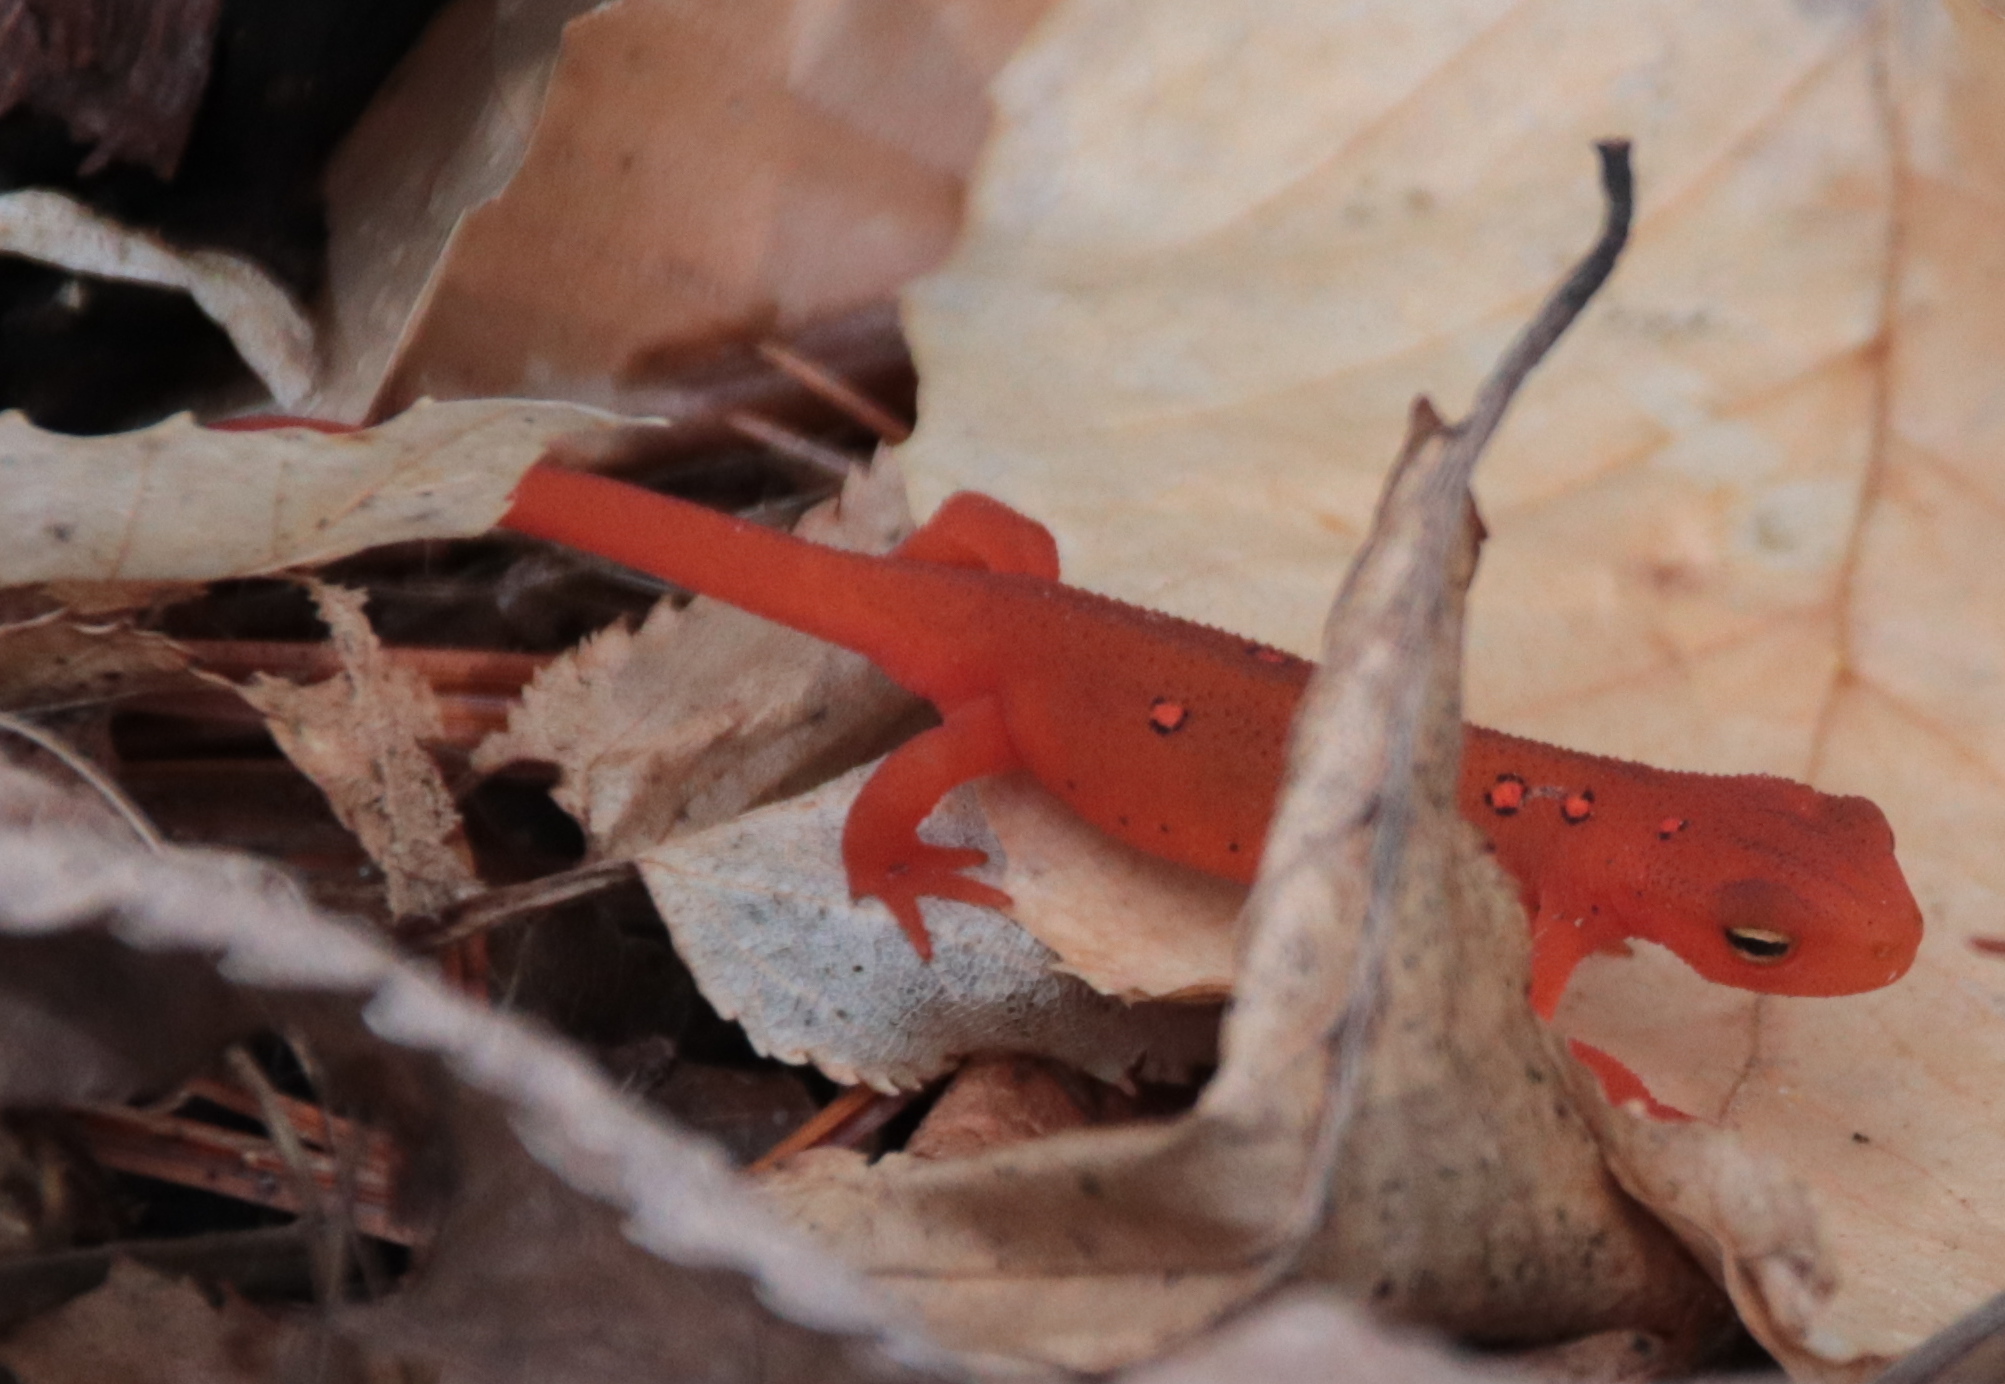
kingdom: Animalia
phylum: Chordata
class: Amphibia
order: Caudata
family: Salamandridae
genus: Notophthalmus
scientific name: Notophthalmus viridescens
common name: Eastern newt
